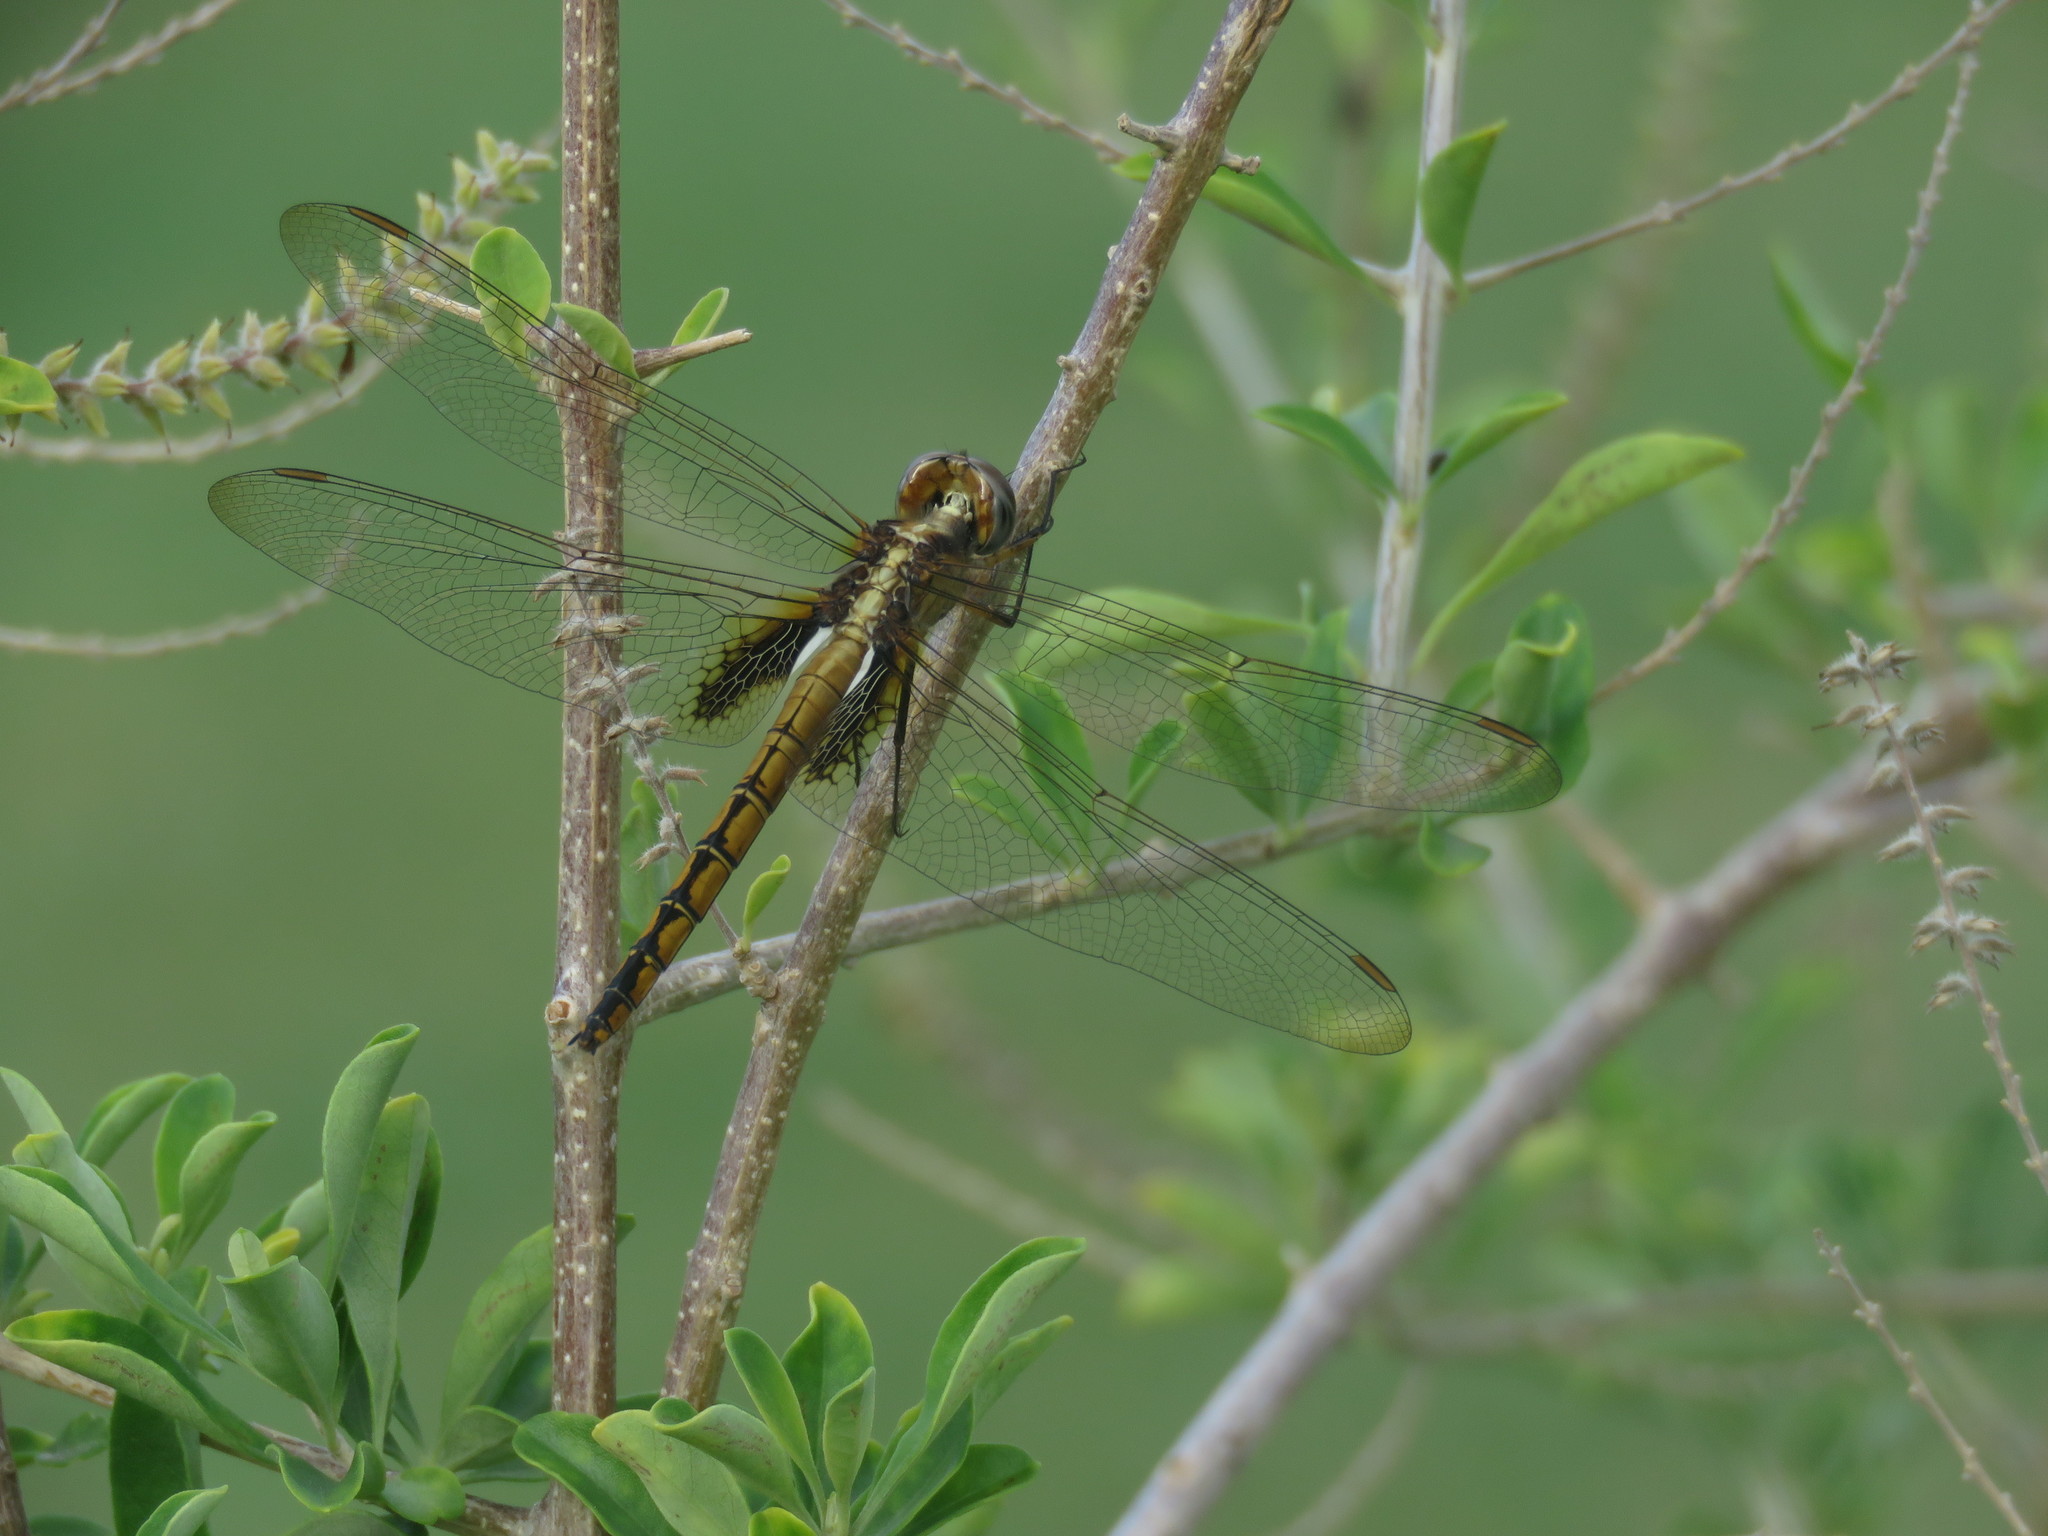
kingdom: Animalia
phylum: Arthropoda
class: Insecta
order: Odonata
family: Libellulidae
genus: Tauriphila
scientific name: Tauriphila risi
